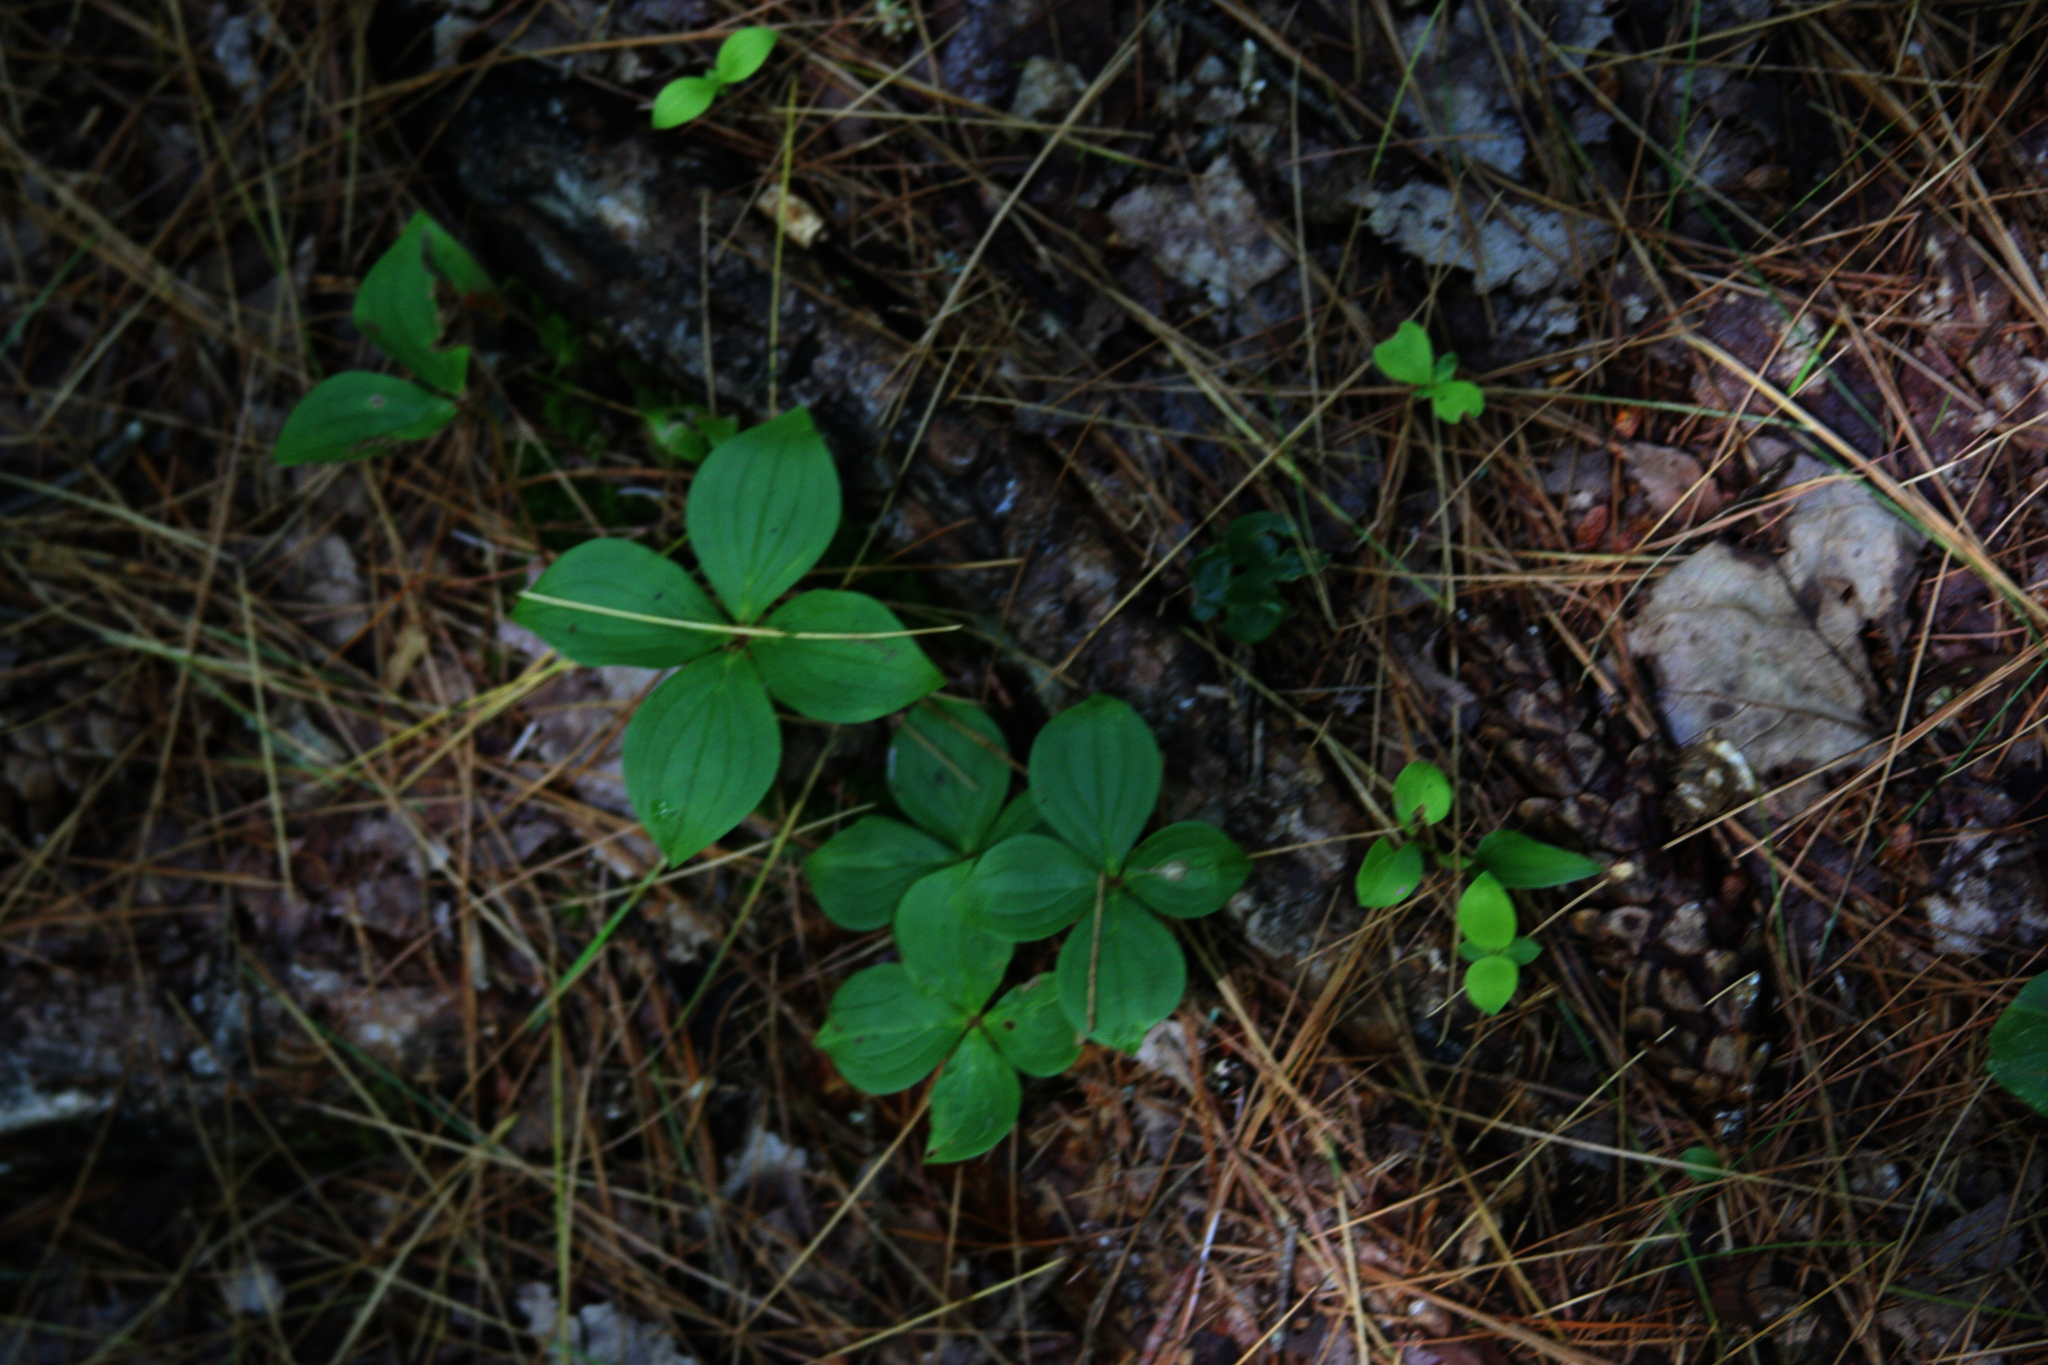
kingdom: Plantae
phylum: Tracheophyta
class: Magnoliopsida
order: Cornales
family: Cornaceae
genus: Cornus
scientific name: Cornus canadensis
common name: Creeping dogwood
